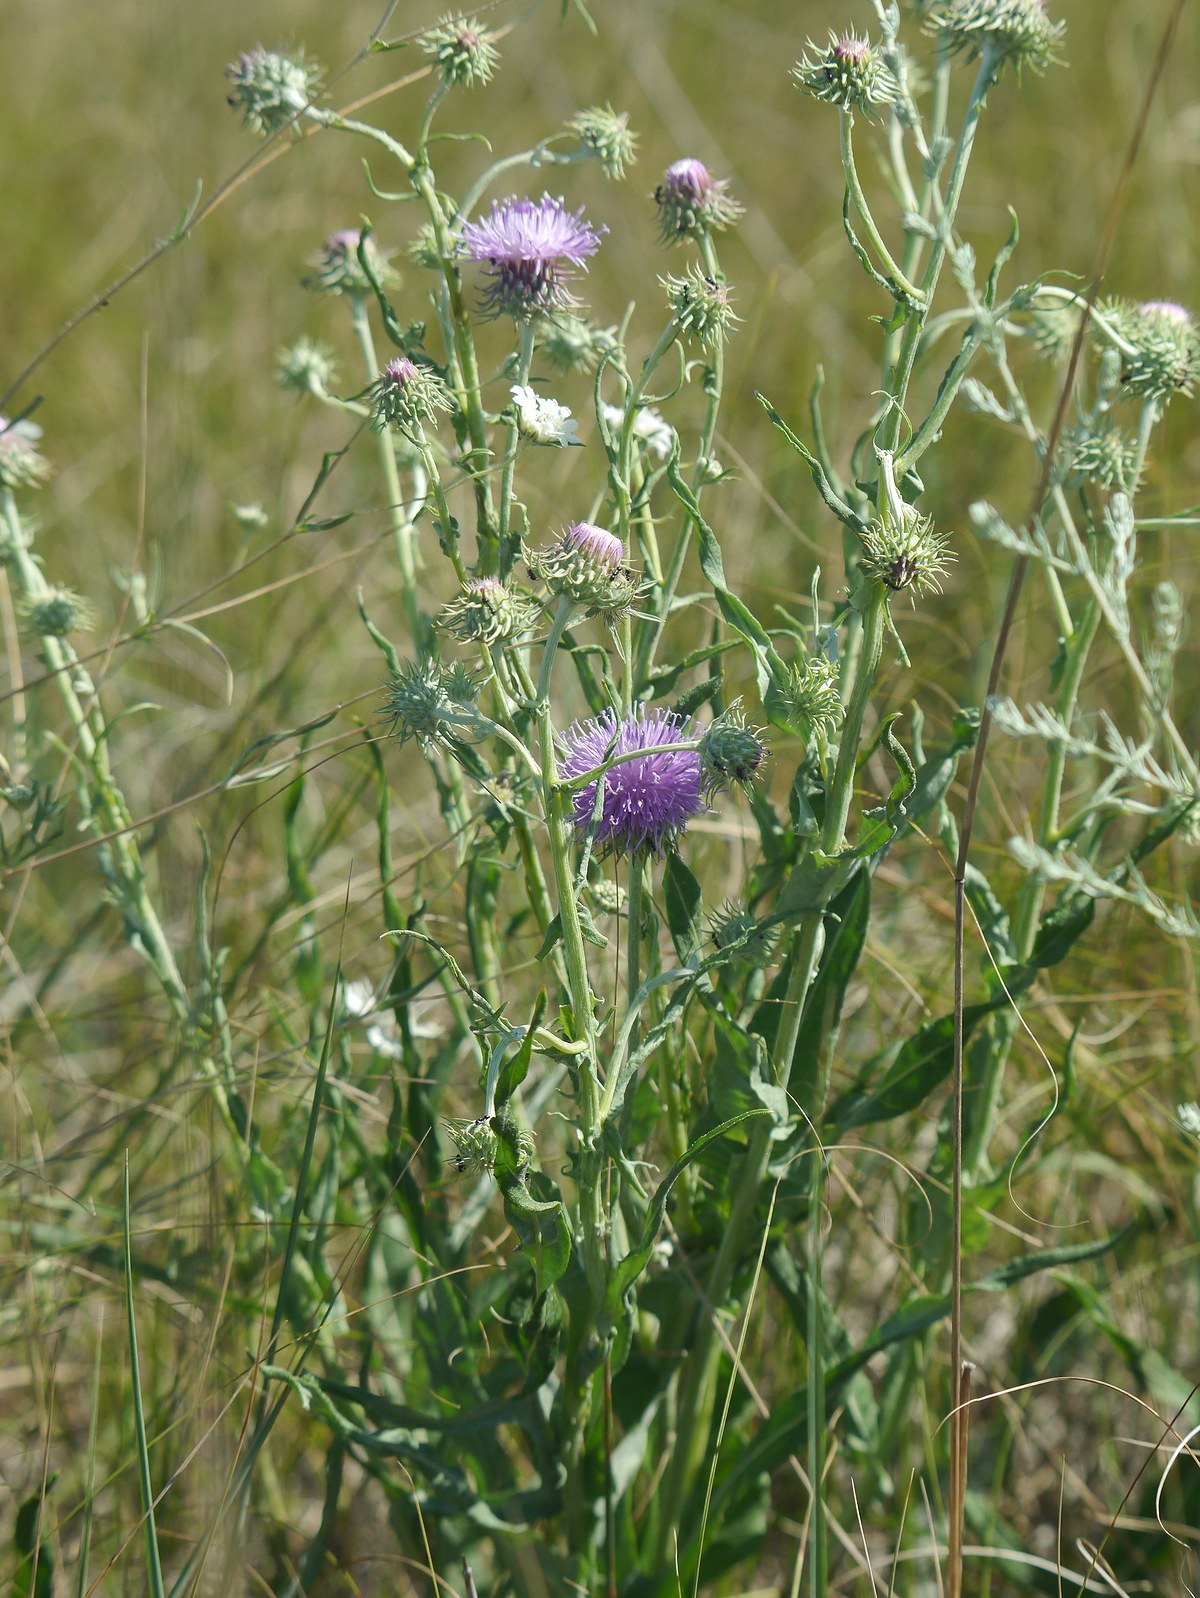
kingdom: Plantae
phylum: Tracheophyta
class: Magnoliopsida
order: Asterales
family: Asteraceae
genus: Jurinea
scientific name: Jurinea longifolia
